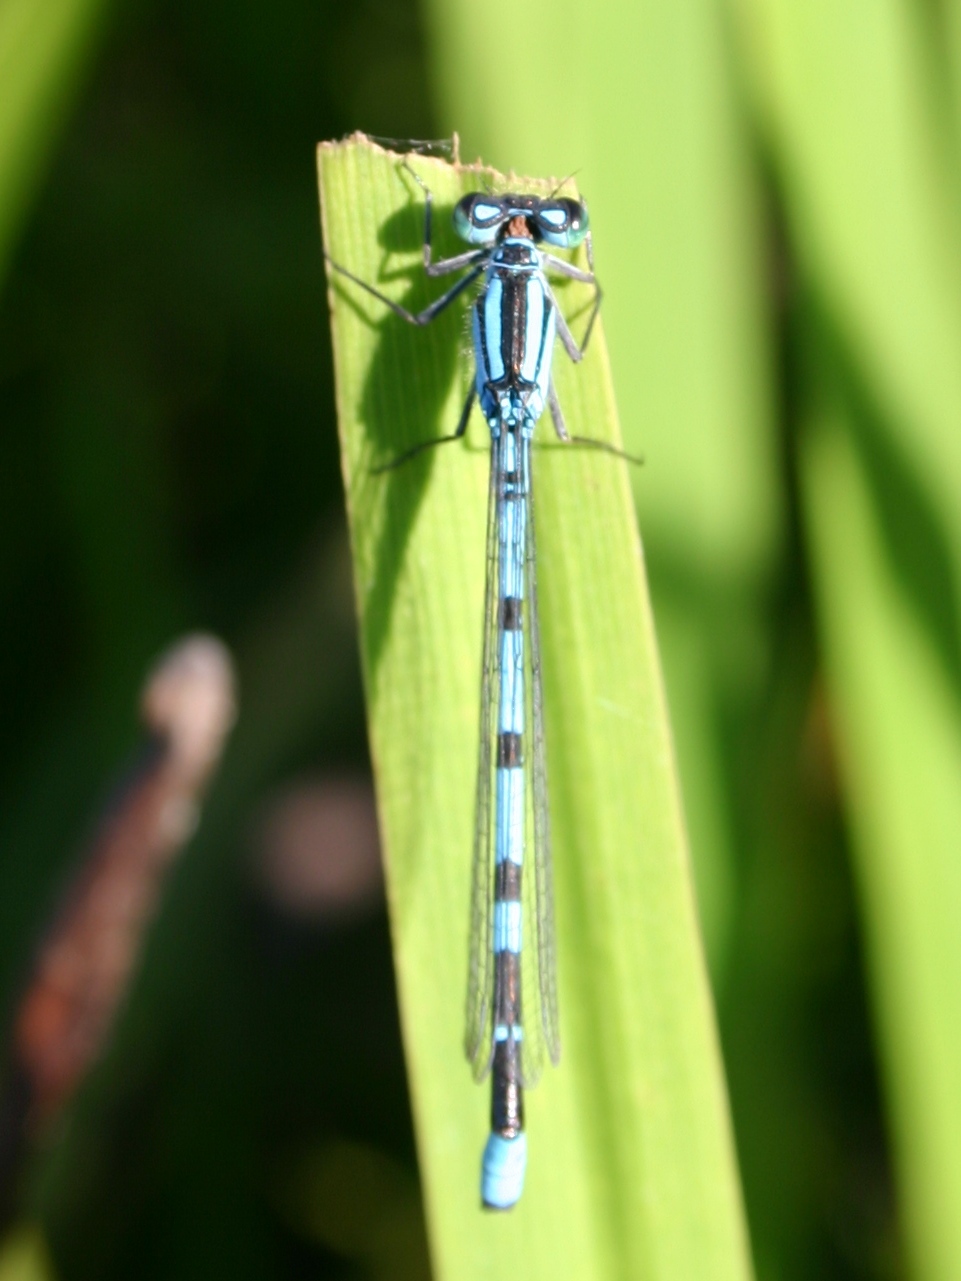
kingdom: Animalia
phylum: Arthropoda
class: Insecta
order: Odonata
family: Coenagrionidae
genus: Enallagma
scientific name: Enallagma cyathigerum
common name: Common blue damselfly
